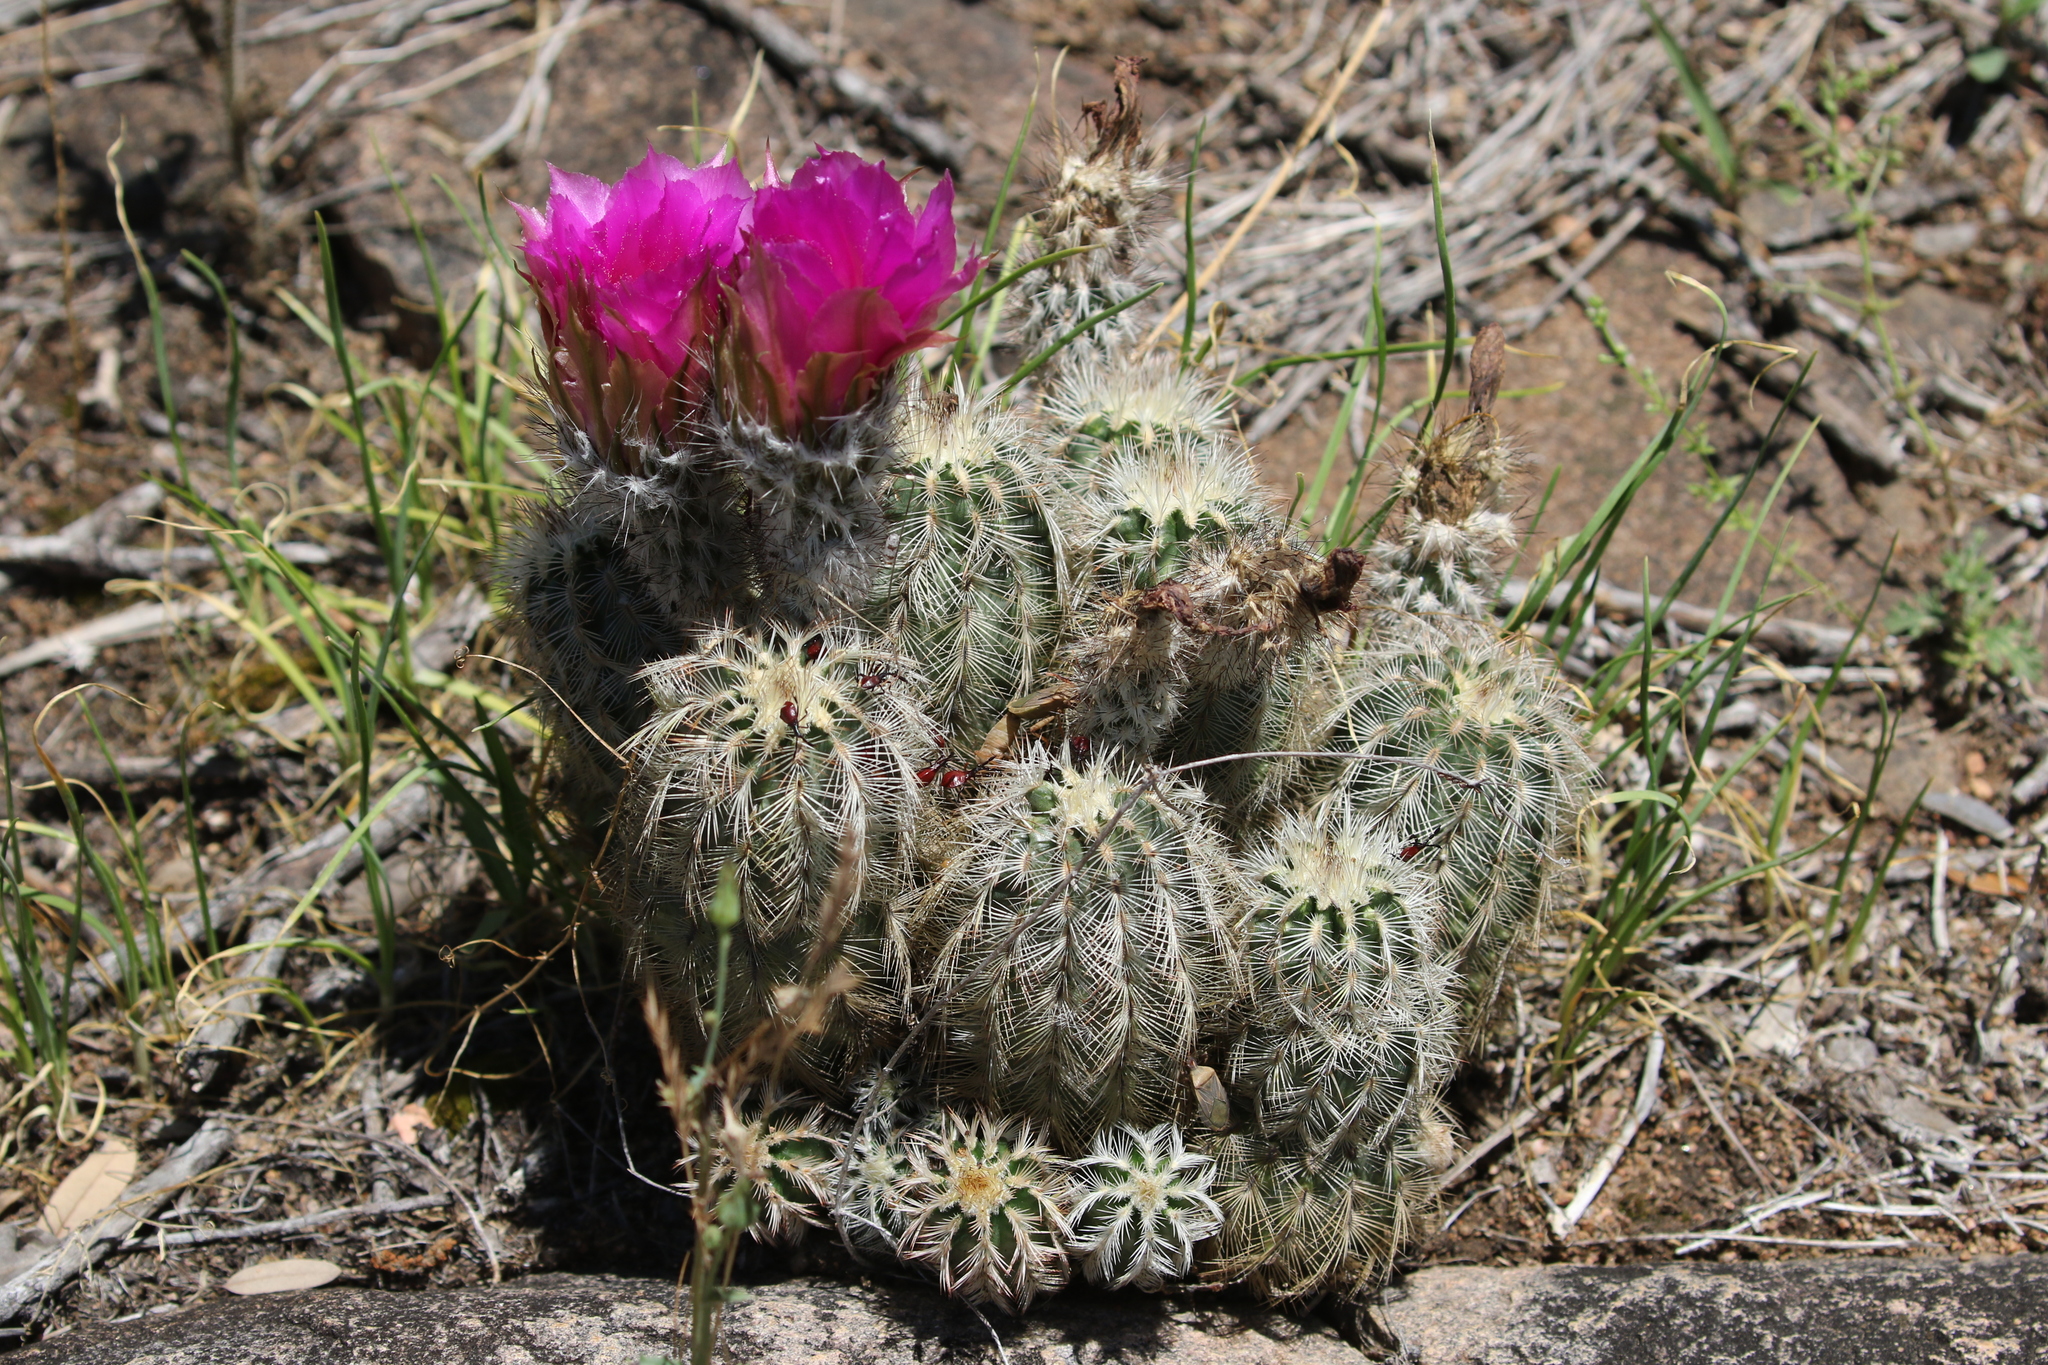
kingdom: Plantae
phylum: Tracheophyta
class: Magnoliopsida
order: Caryophyllales
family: Cactaceae
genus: Echinocereus
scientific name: Echinocereus reichenbachii
